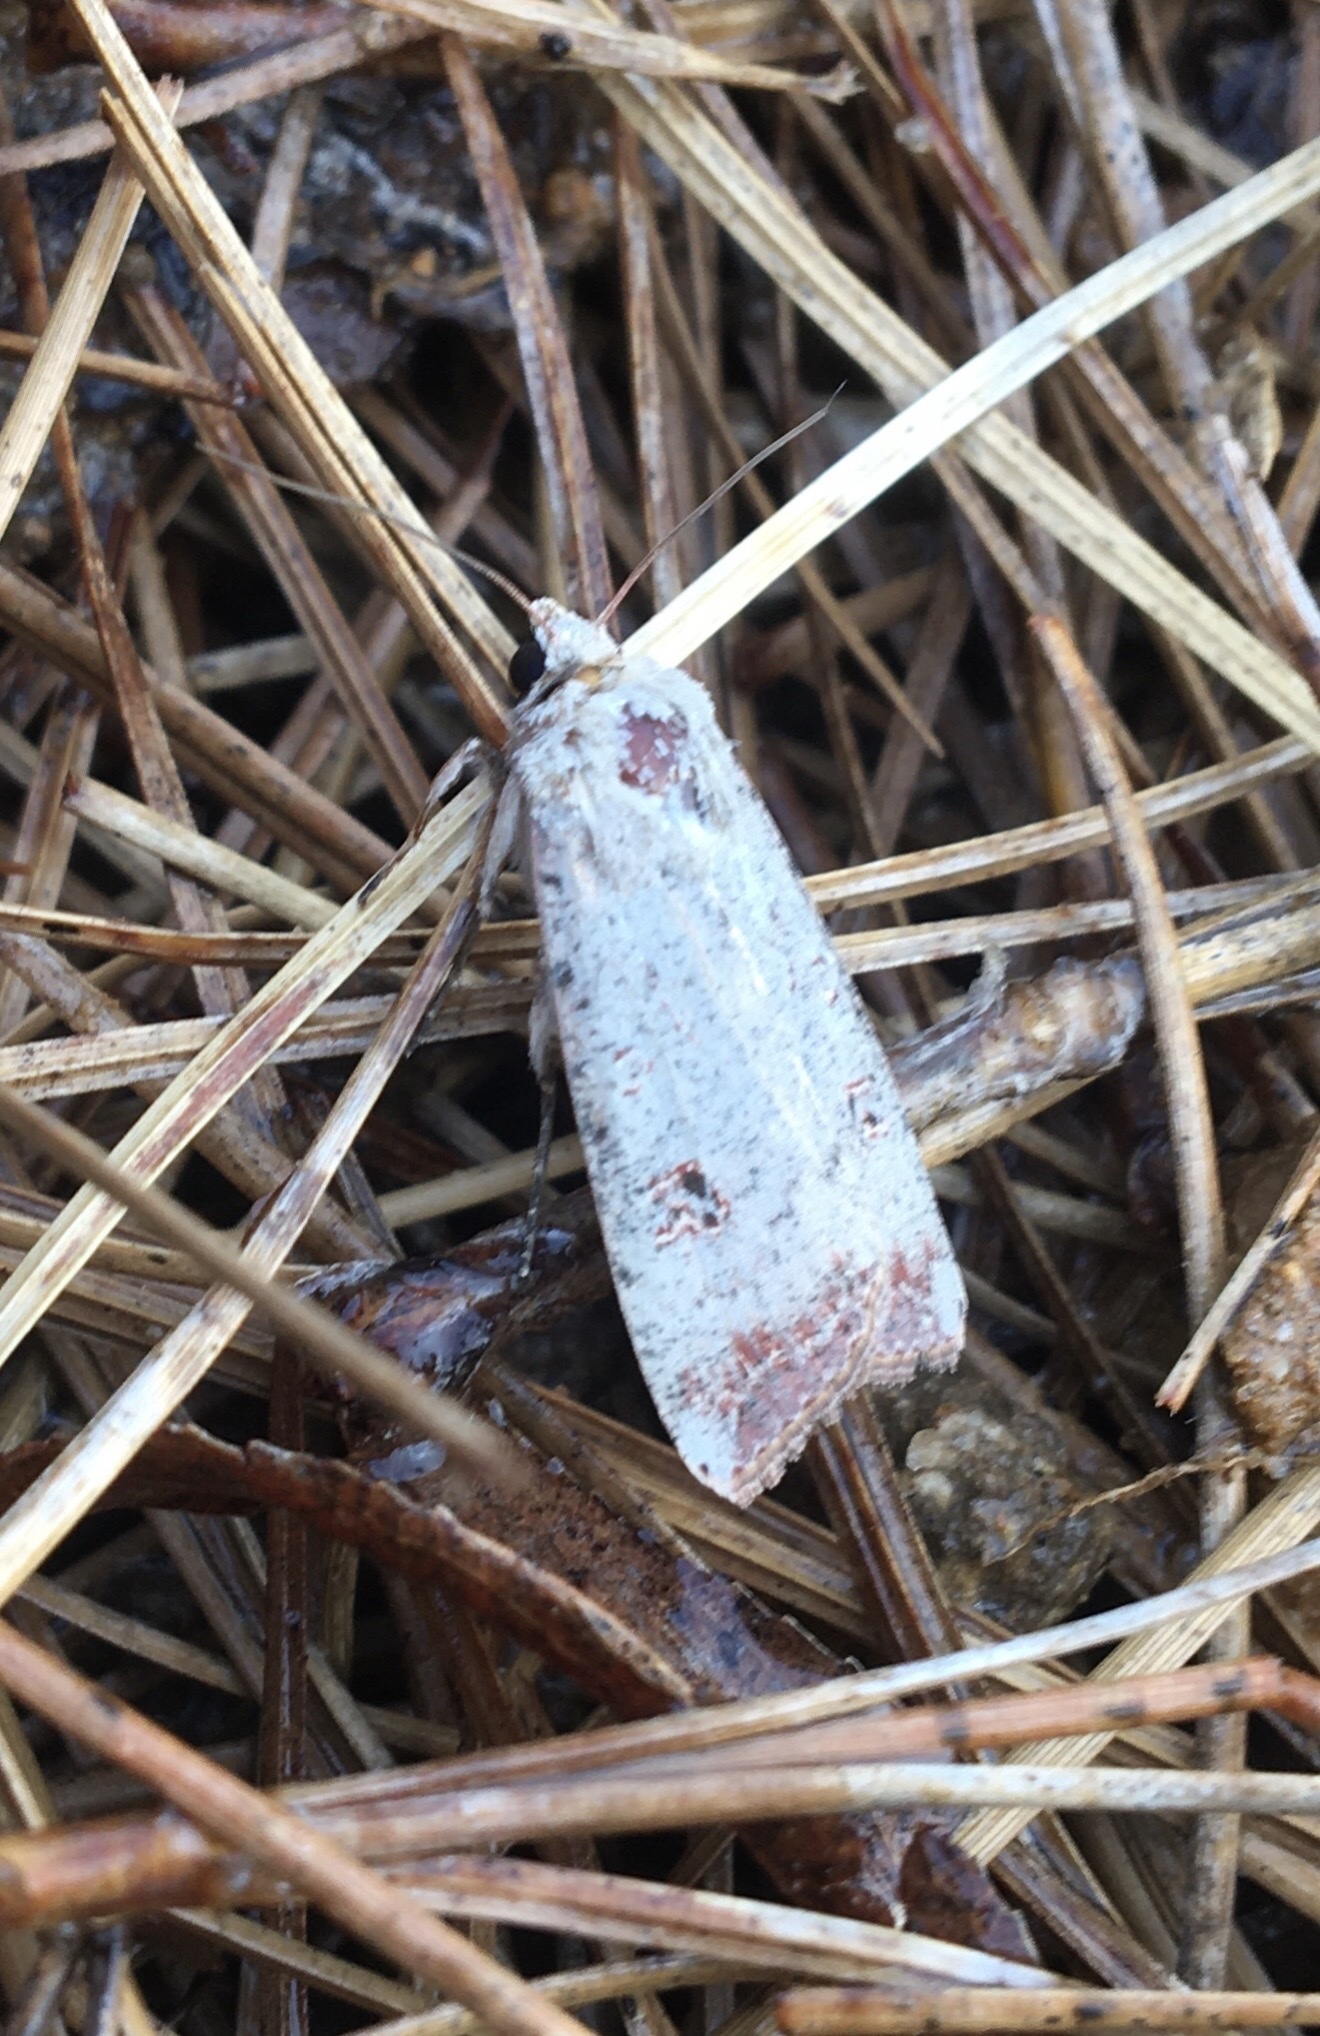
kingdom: Animalia
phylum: Arthropoda
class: Insecta
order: Lepidoptera
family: Noctuidae
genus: Anicla
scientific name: Anicla infecta
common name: Green cutworm
